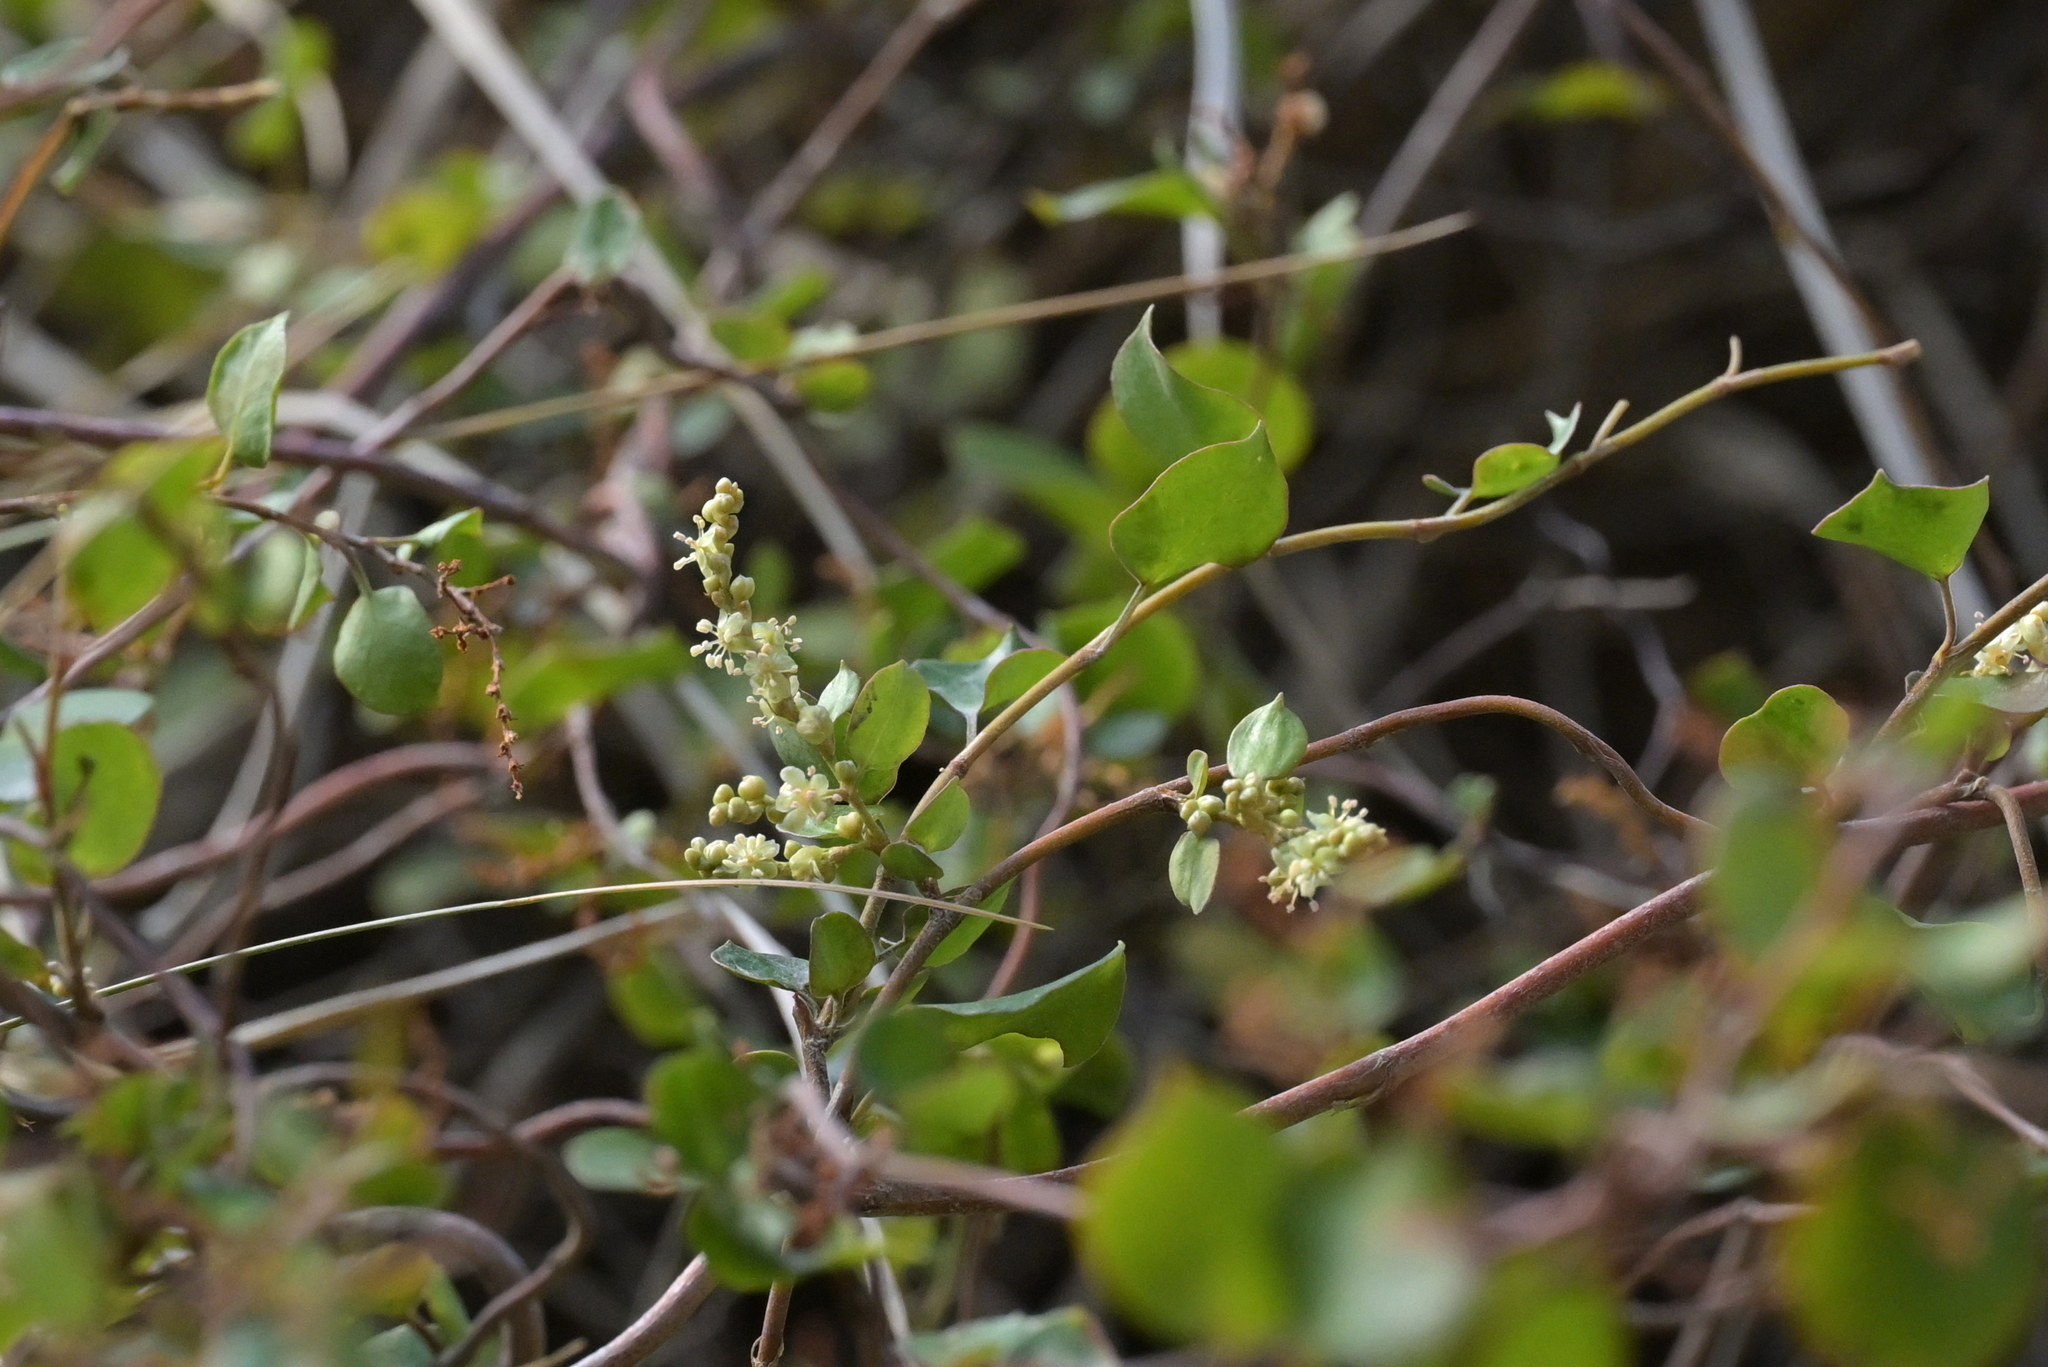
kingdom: Plantae
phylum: Tracheophyta
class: Magnoliopsida
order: Caryophyllales
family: Polygonaceae
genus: Muehlenbeckia
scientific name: Muehlenbeckia complexa
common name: Wireplant
